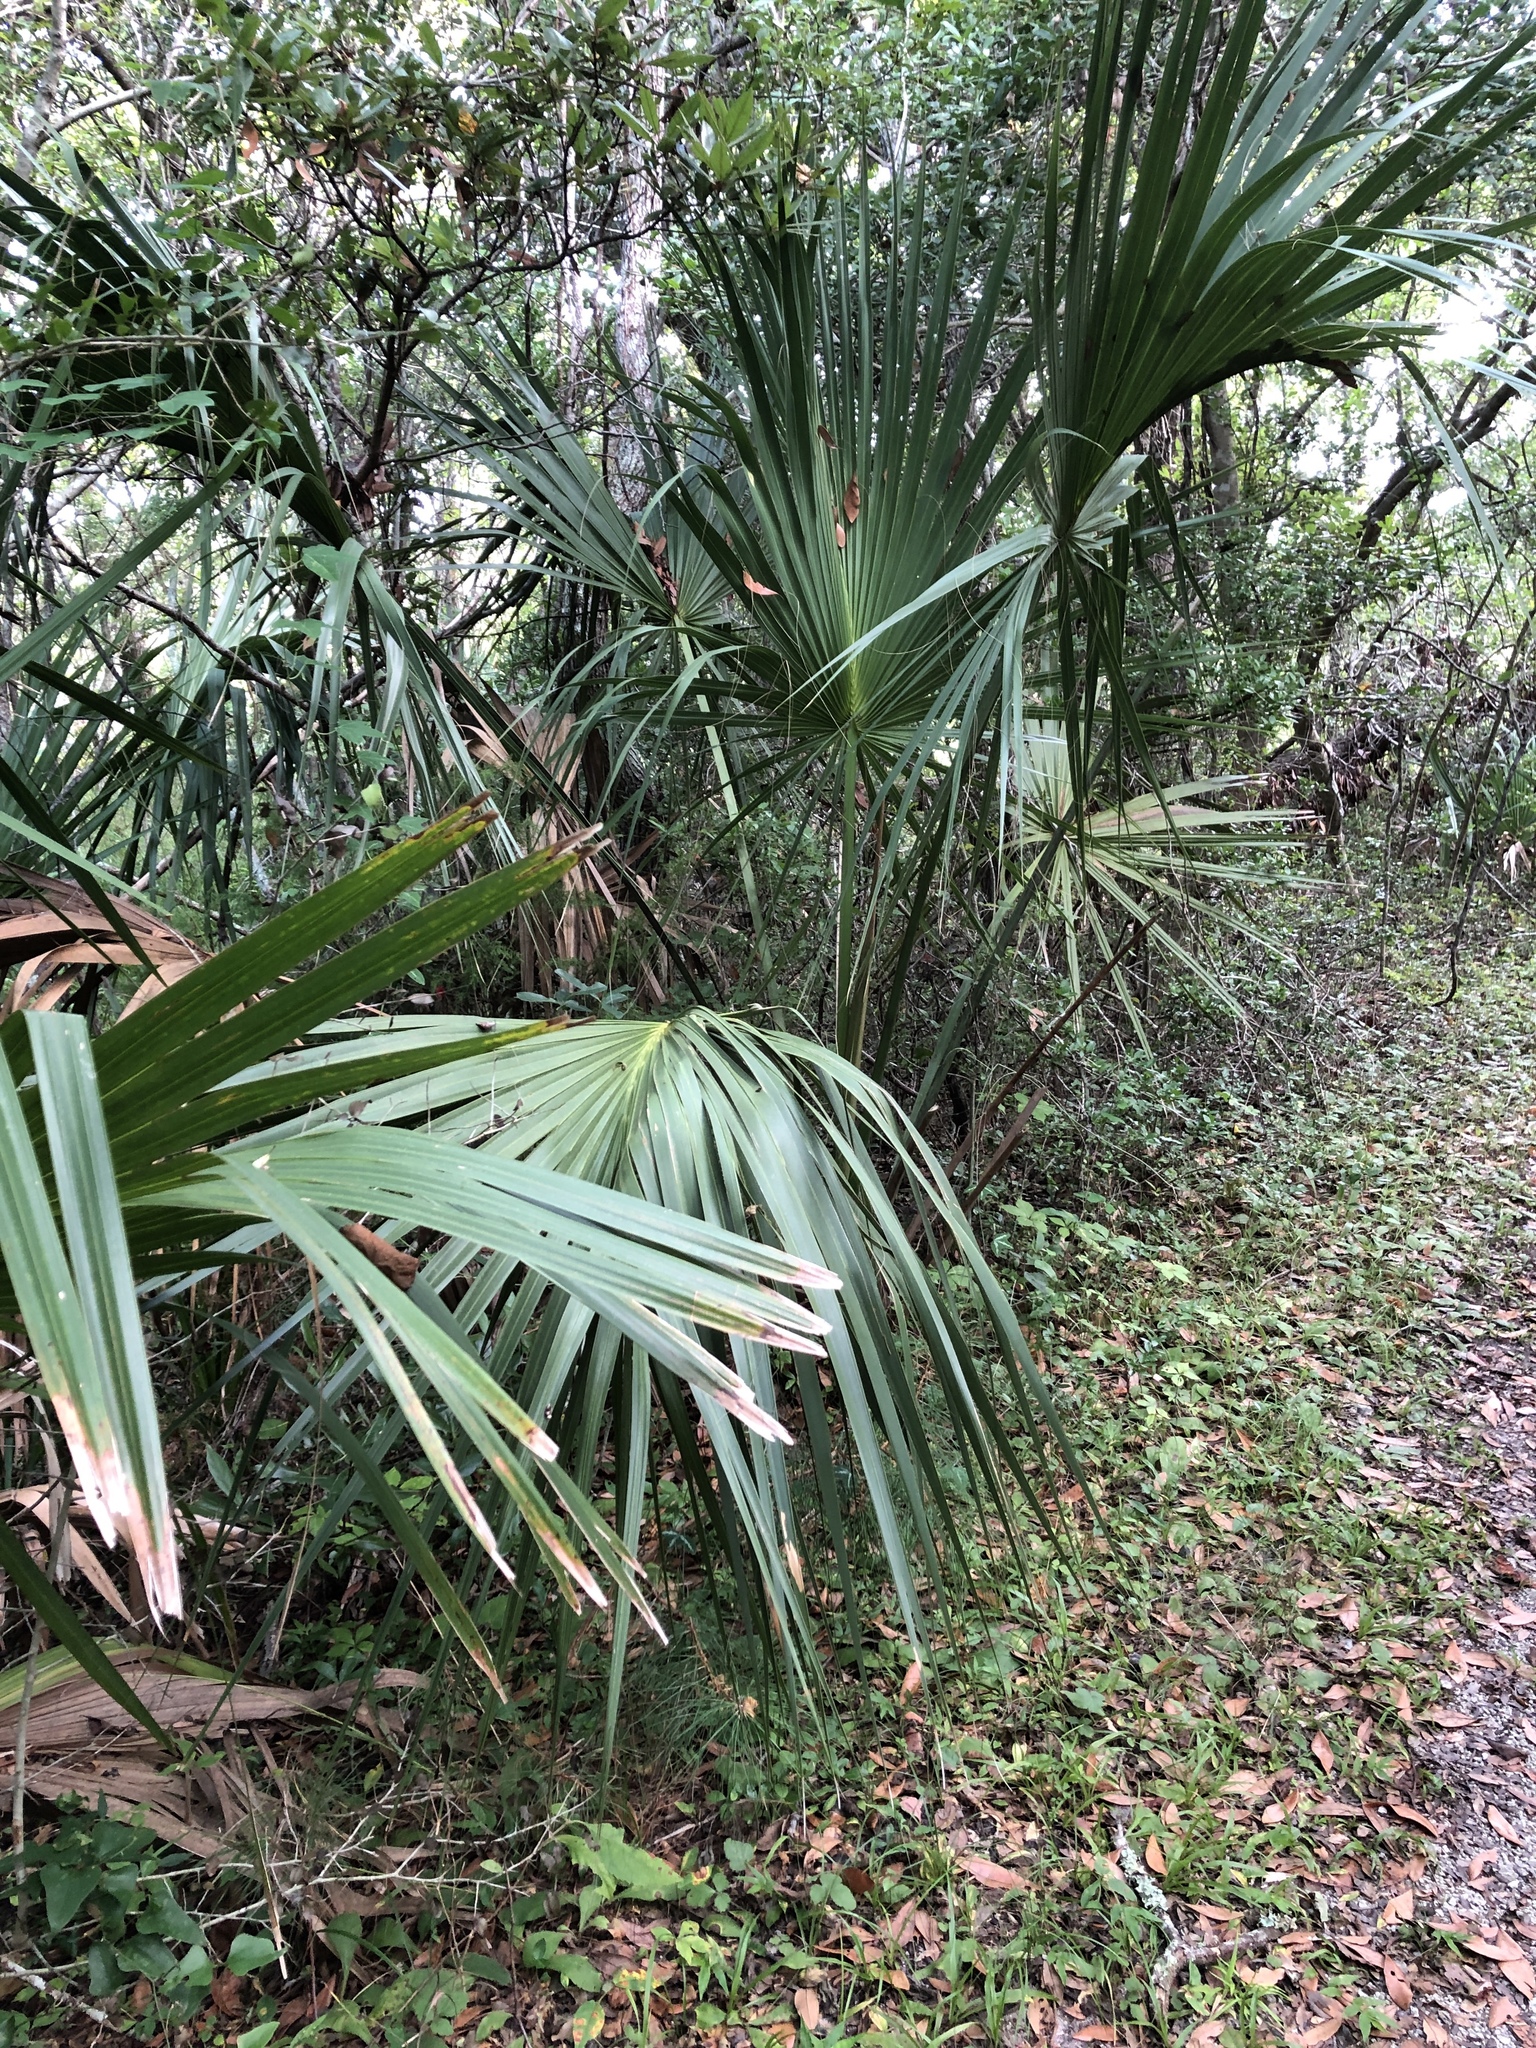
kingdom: Plantae
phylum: Tracheophyta
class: Liliopsida
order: Arecales
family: Arecaceae
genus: Sabal
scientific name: Sabal minor
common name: Dwarf palmetto
